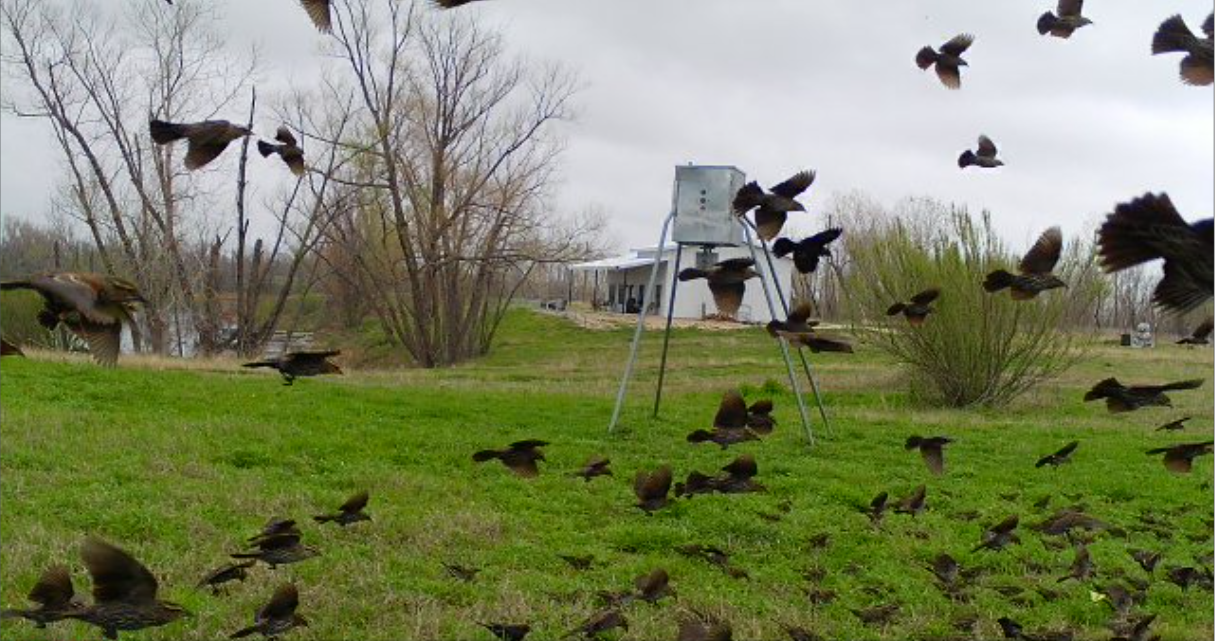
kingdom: Animalia
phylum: Chordata
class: Aves
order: Passeriformes
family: Icteridae
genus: Agelaius
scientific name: Agelaius phoeniceus
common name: Red-winged blackbird
